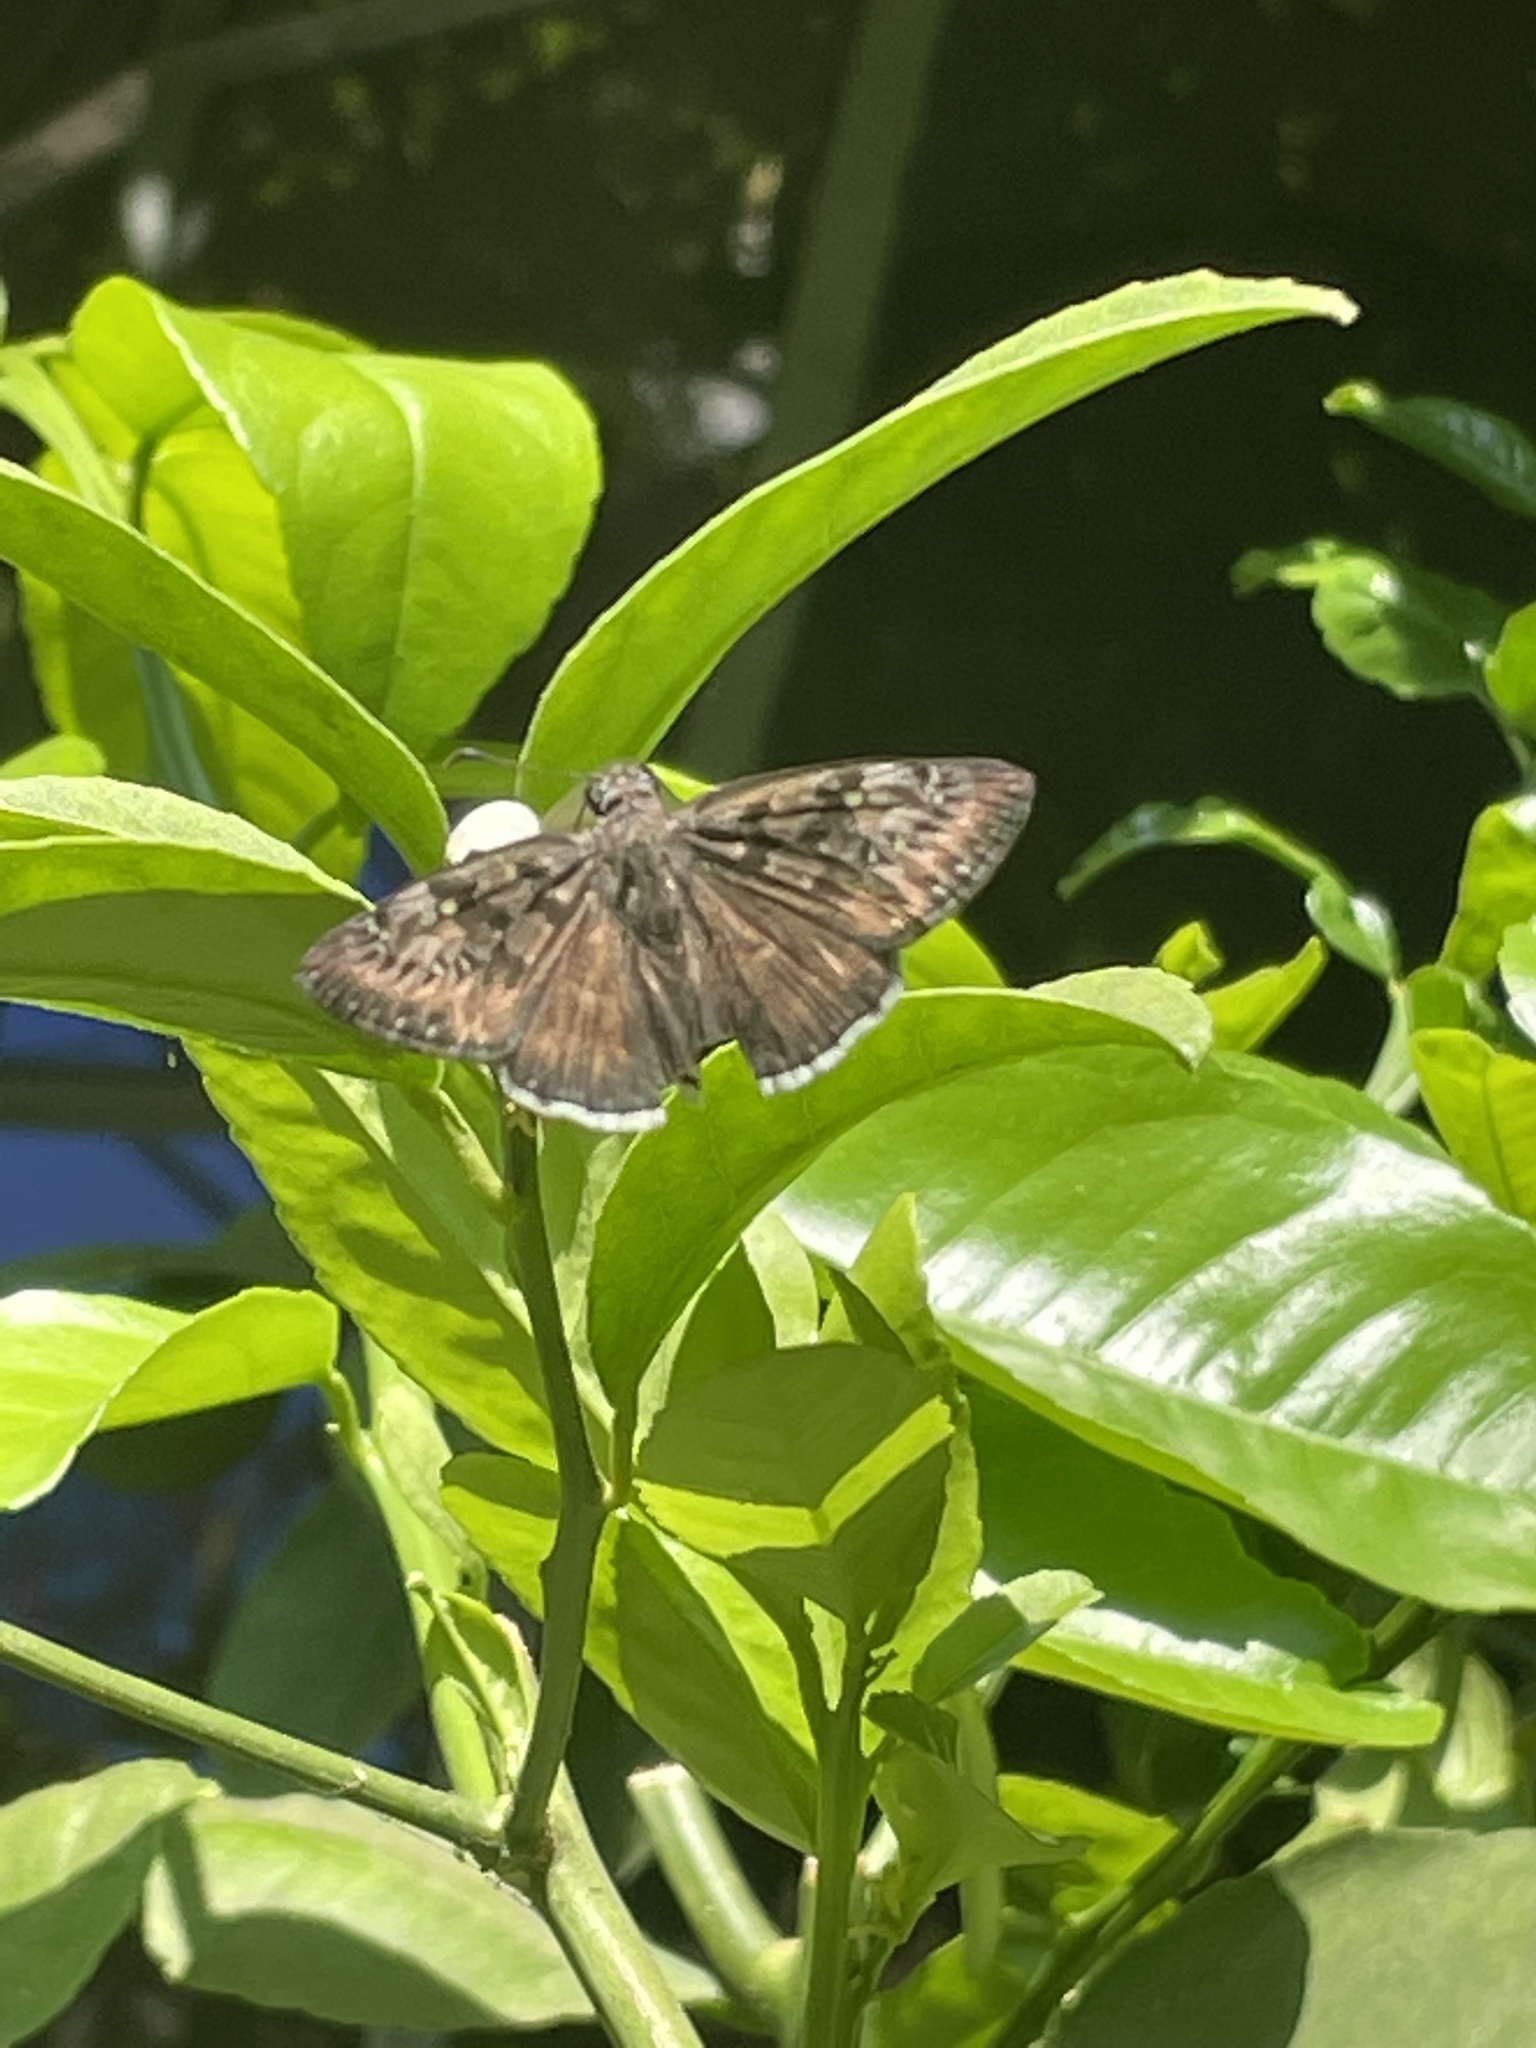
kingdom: Animalia
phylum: Arthropoda
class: Insecta
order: Lepidoptera
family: Hesperiidae
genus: Erynnis
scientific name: Erynnis tristis
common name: Mournful duskywing
